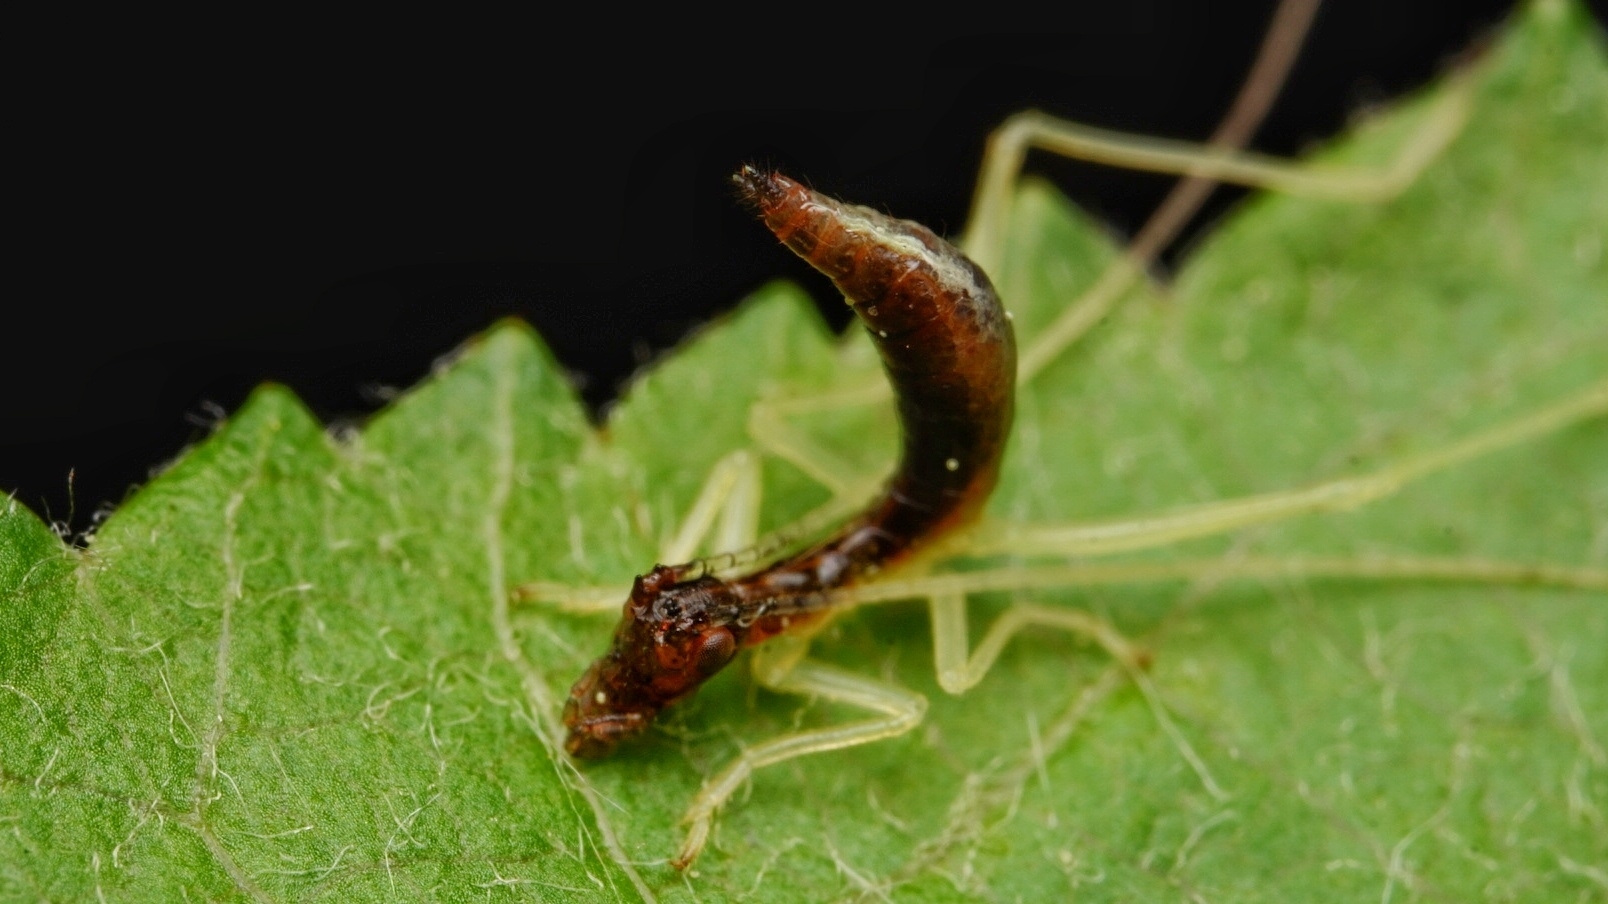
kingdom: Animalia
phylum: Arthropoda
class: Insecta
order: Orthoptera
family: Gryllidae
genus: Neoxabea
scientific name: Neoxabea bipunctata
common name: Two-spotted tree cricket
